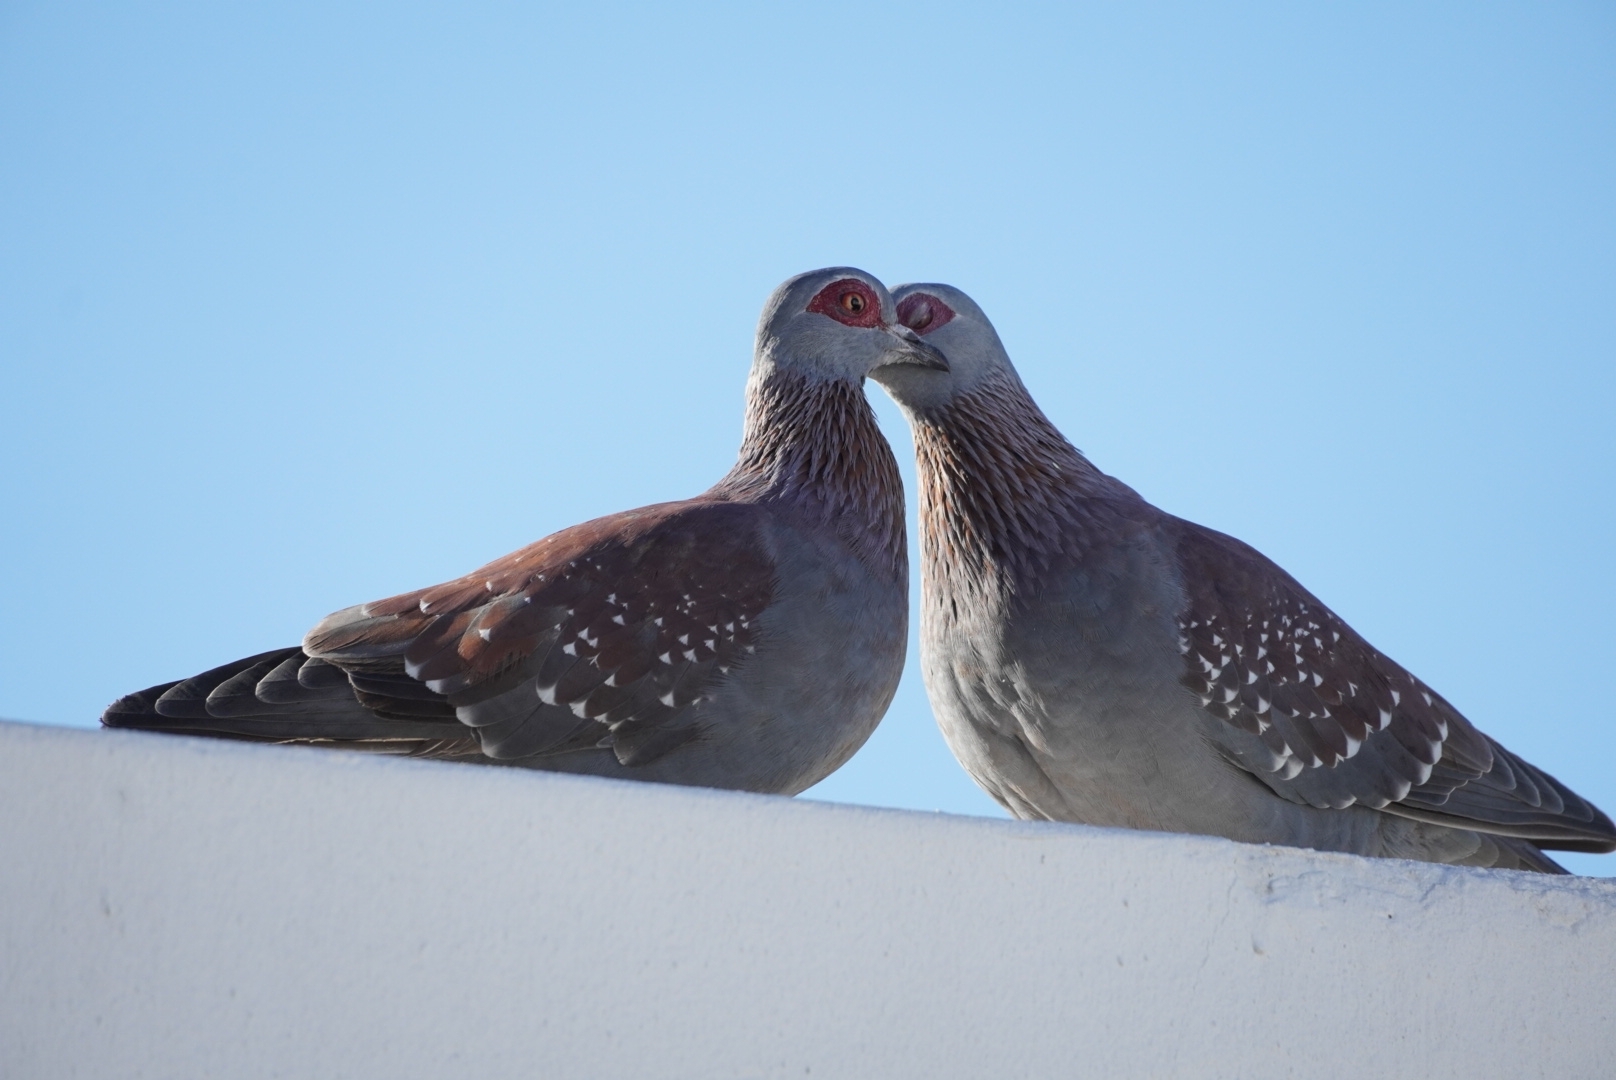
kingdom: Animalia
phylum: Chordata
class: Aves
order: Columbiformes
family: Columbidae
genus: Columba
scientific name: Columba guinea
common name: Speckled pigeon
